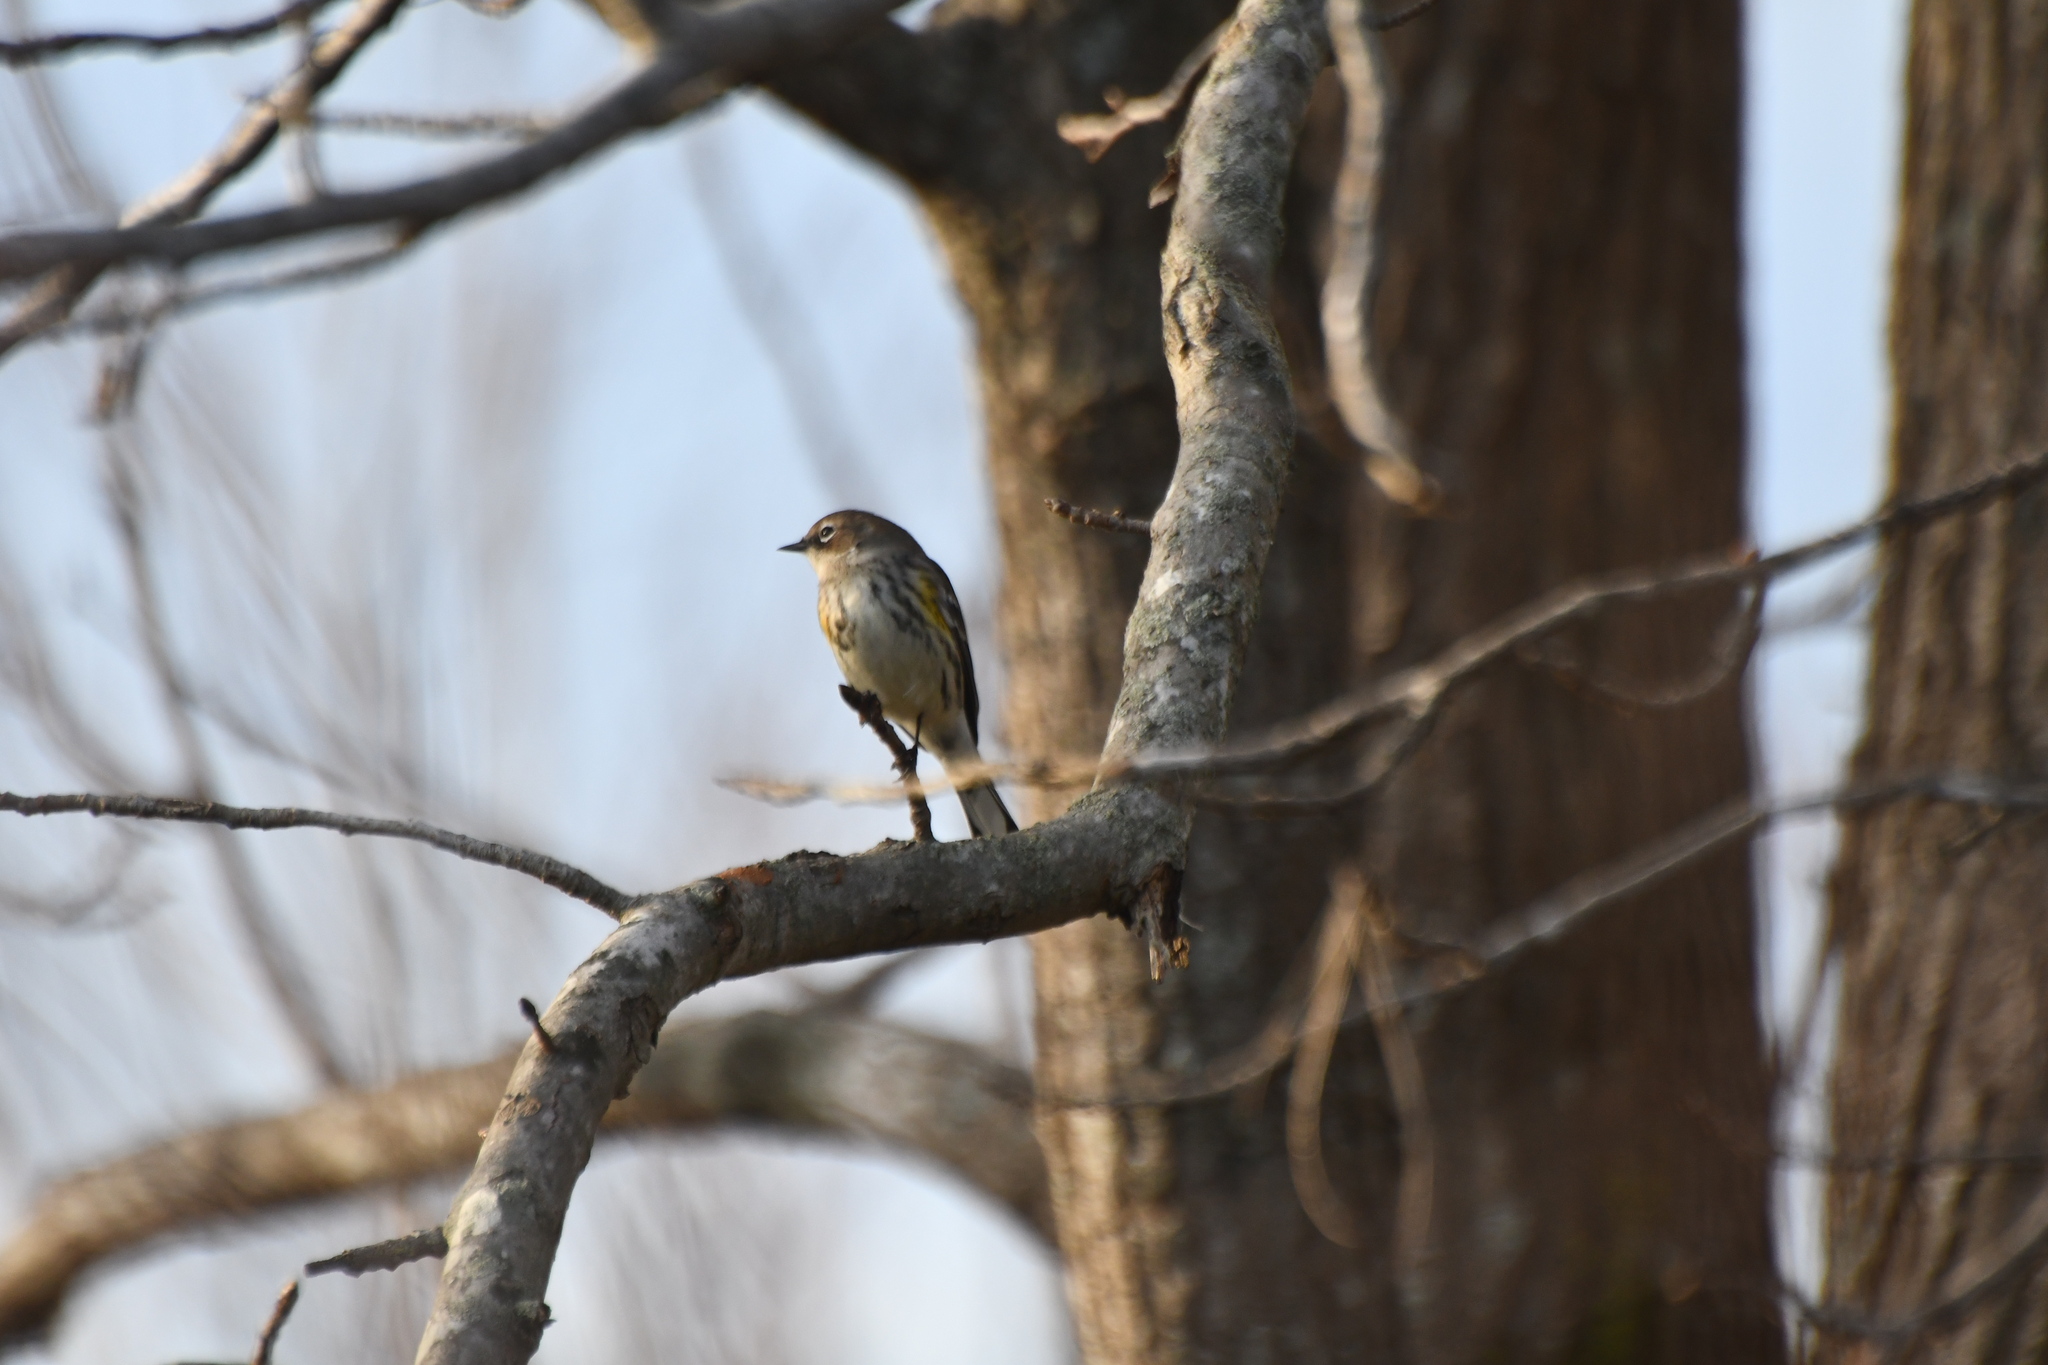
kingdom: Animalia
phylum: Chordata
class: Aves
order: Passeriformes
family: Parulidae
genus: Setophaga
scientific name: Setophaga coronata
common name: Myrtle warbler
